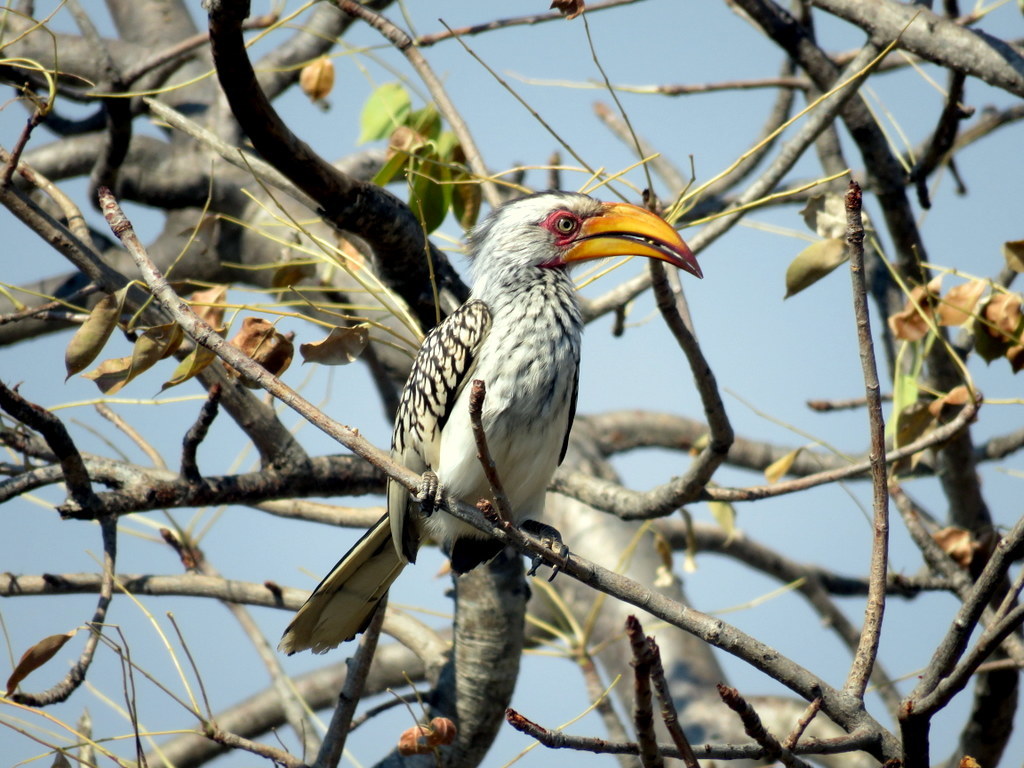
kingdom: Animalia
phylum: Chordata
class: Aves
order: Bucerotiformes
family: Bucerotidae
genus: Tockus
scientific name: Tockus leucomelas
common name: Southern yellow-billed hornbill
